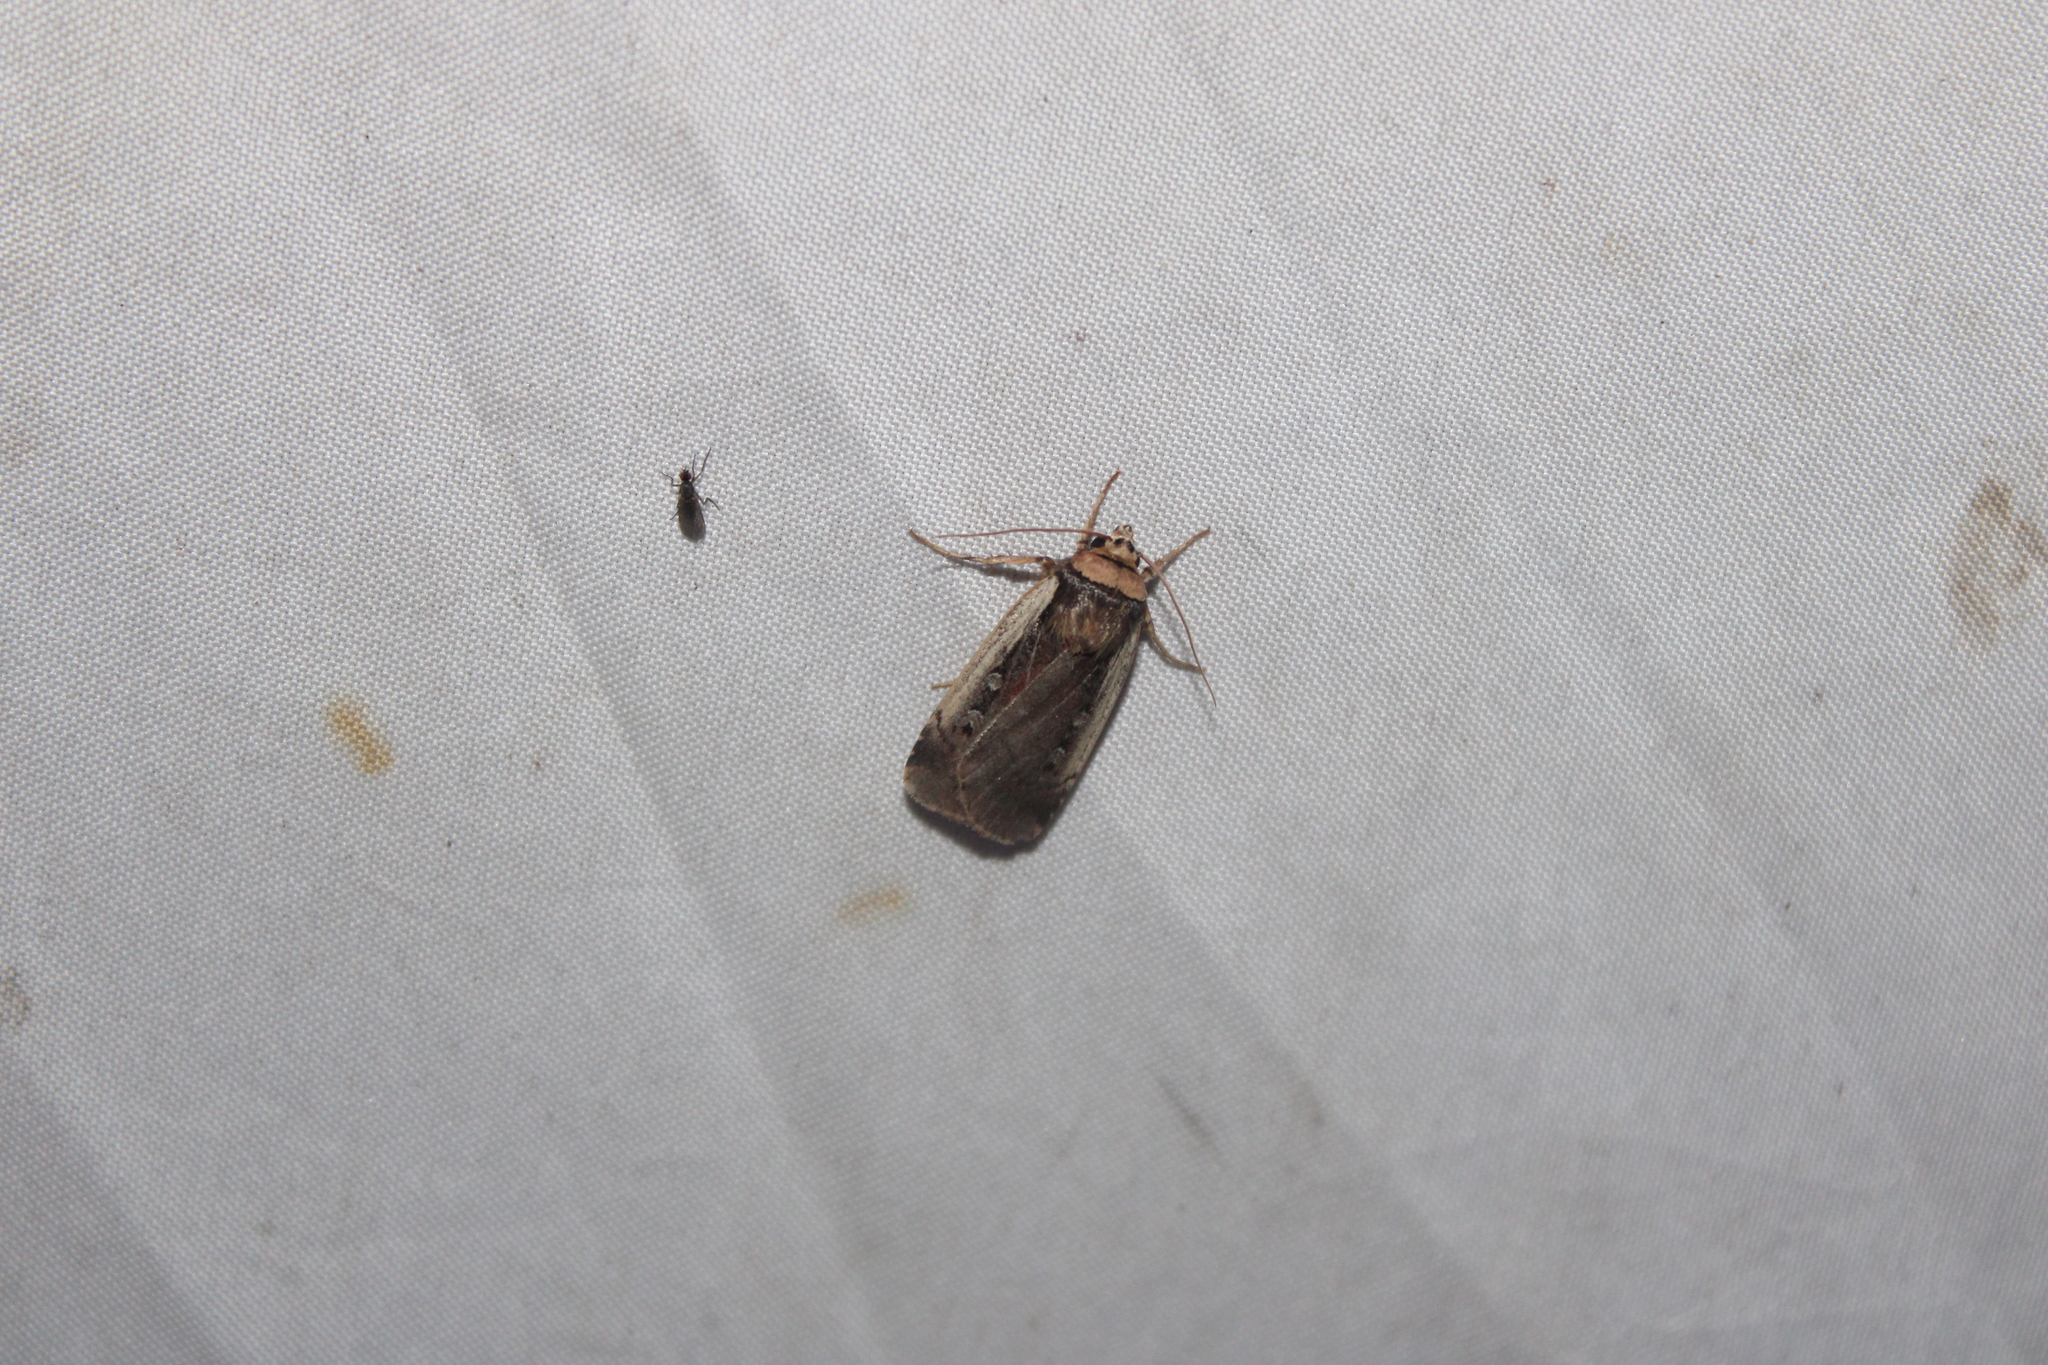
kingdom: Animalia
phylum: Arthropoda
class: Insecta
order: Lepidoptera
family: Noctuidae
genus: Ochropleura
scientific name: Ochropleura implecta
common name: Flame-shouldered dart
